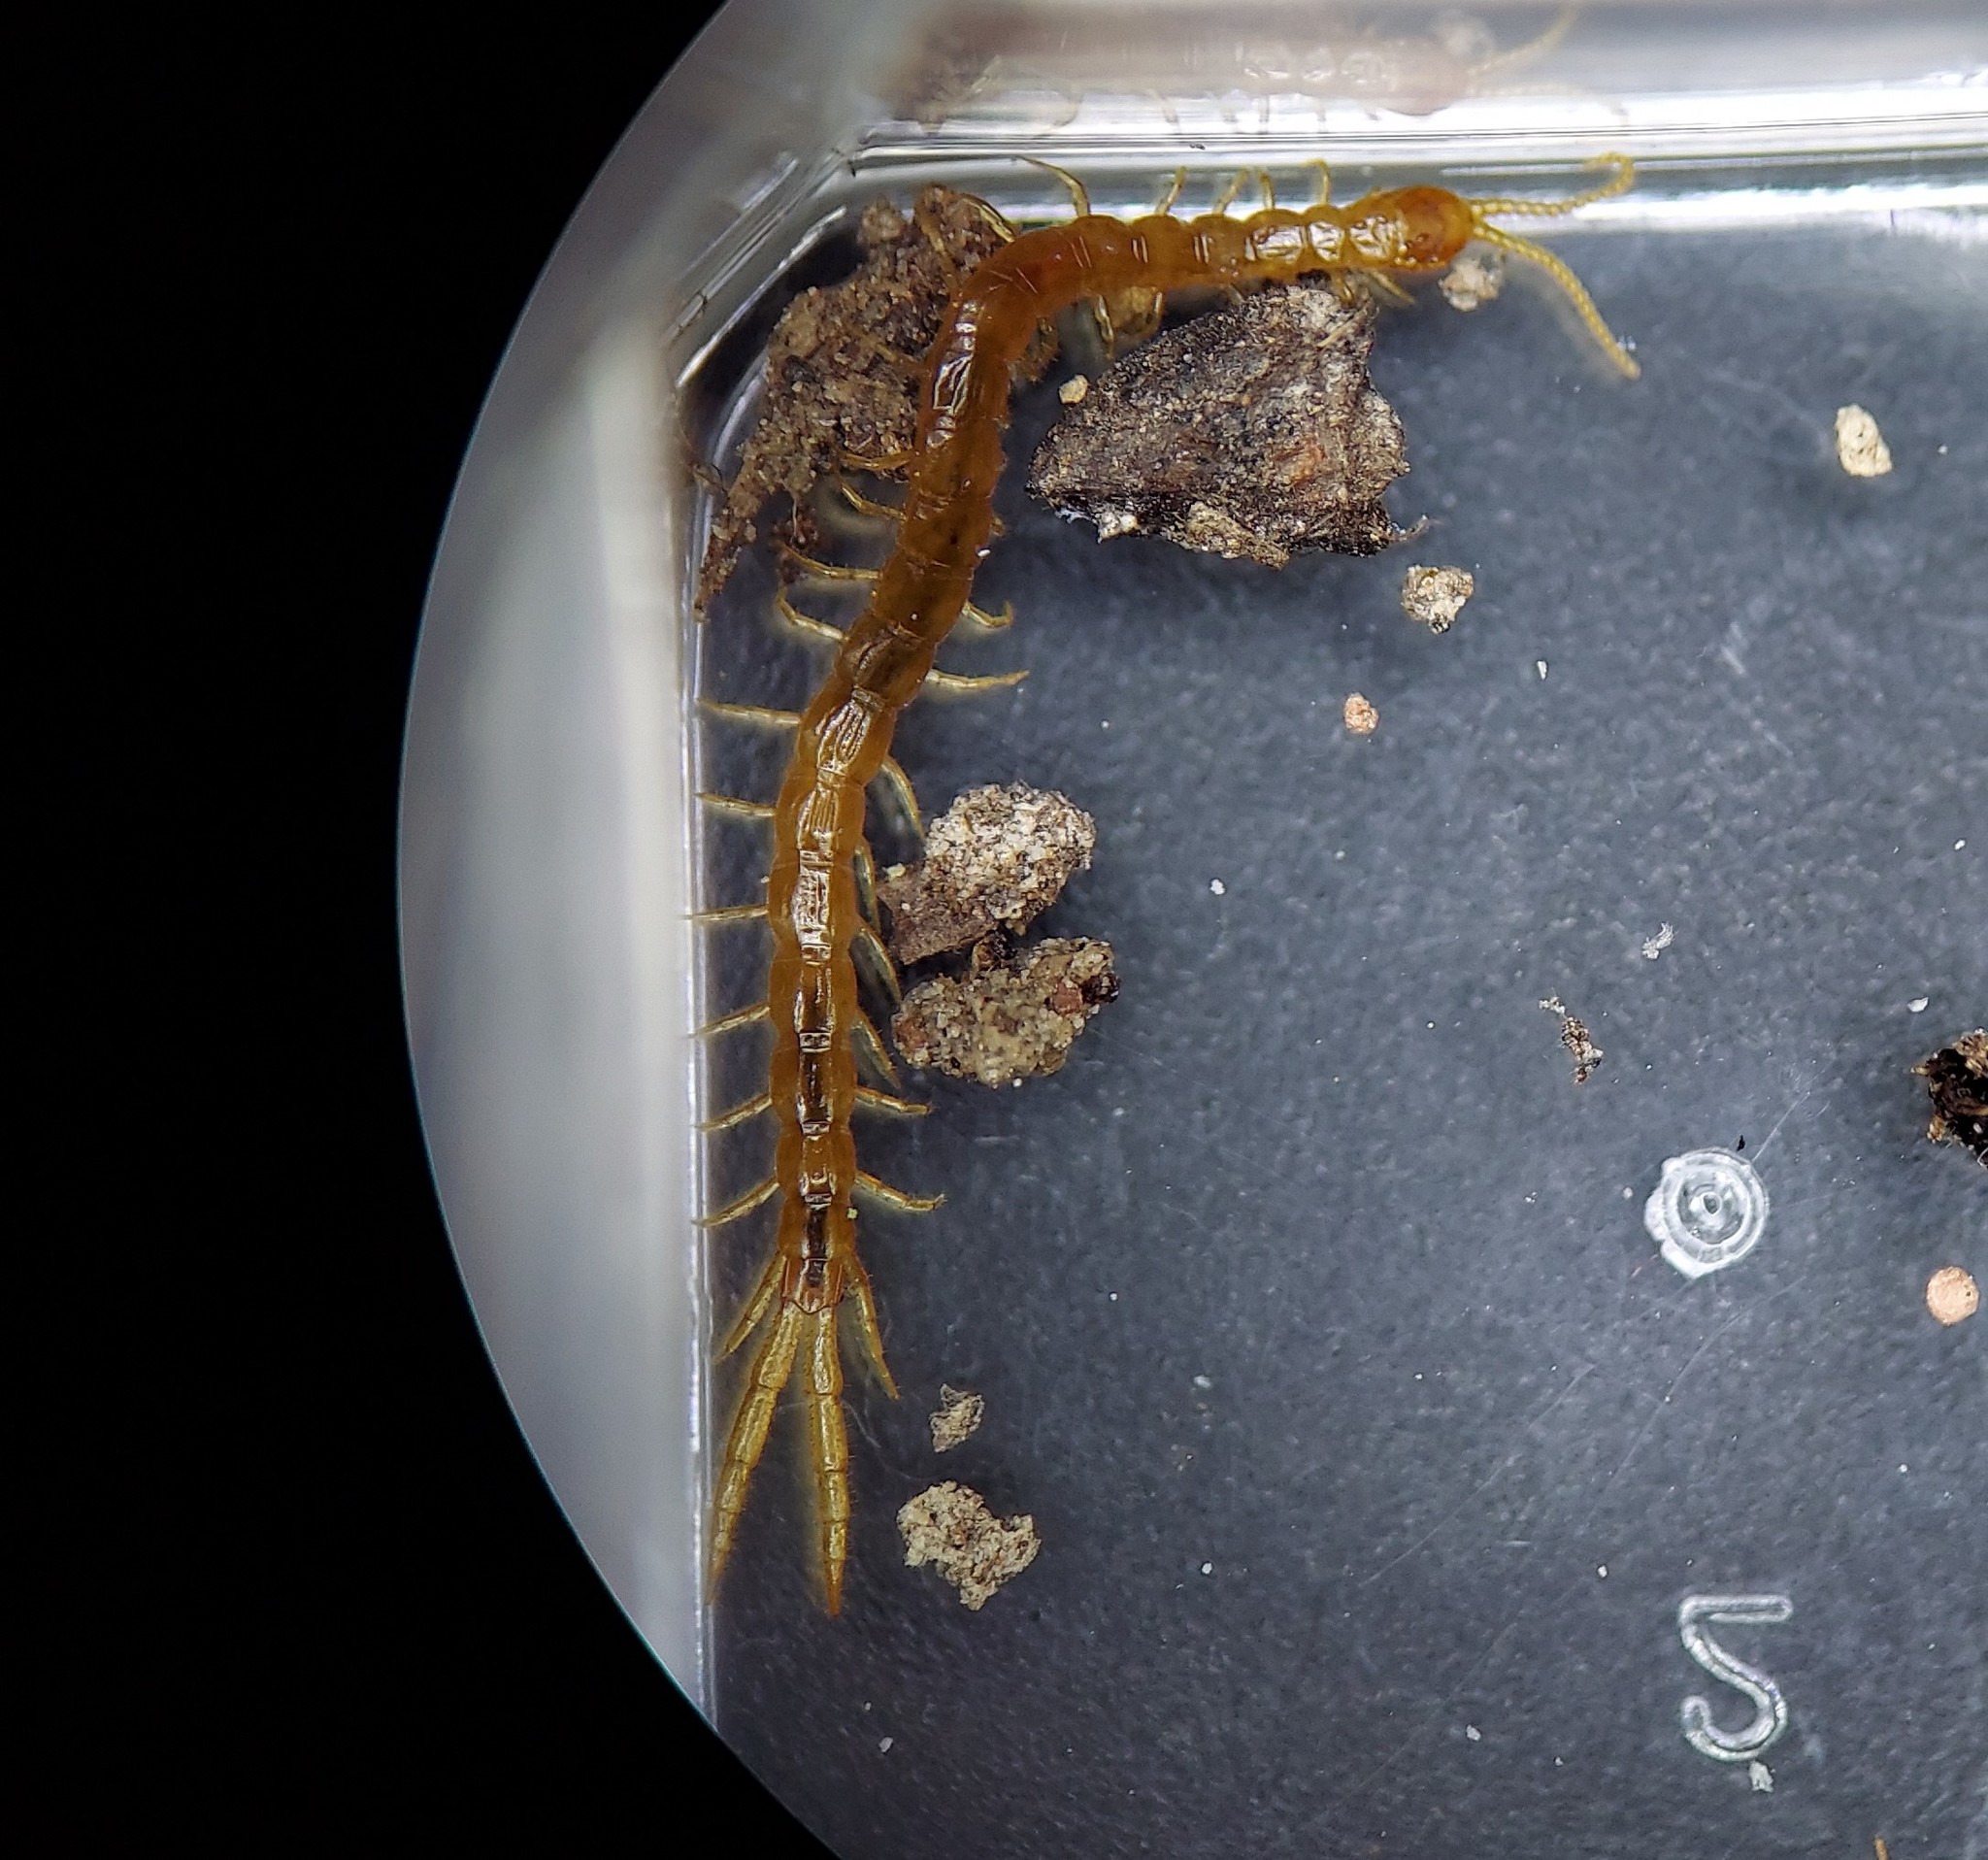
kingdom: Animalia
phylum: Arthropoda
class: Chilopoda
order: Scolopendromorpha
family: Cryptopidae
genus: Cryptops
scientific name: Cryptops leucopodus
